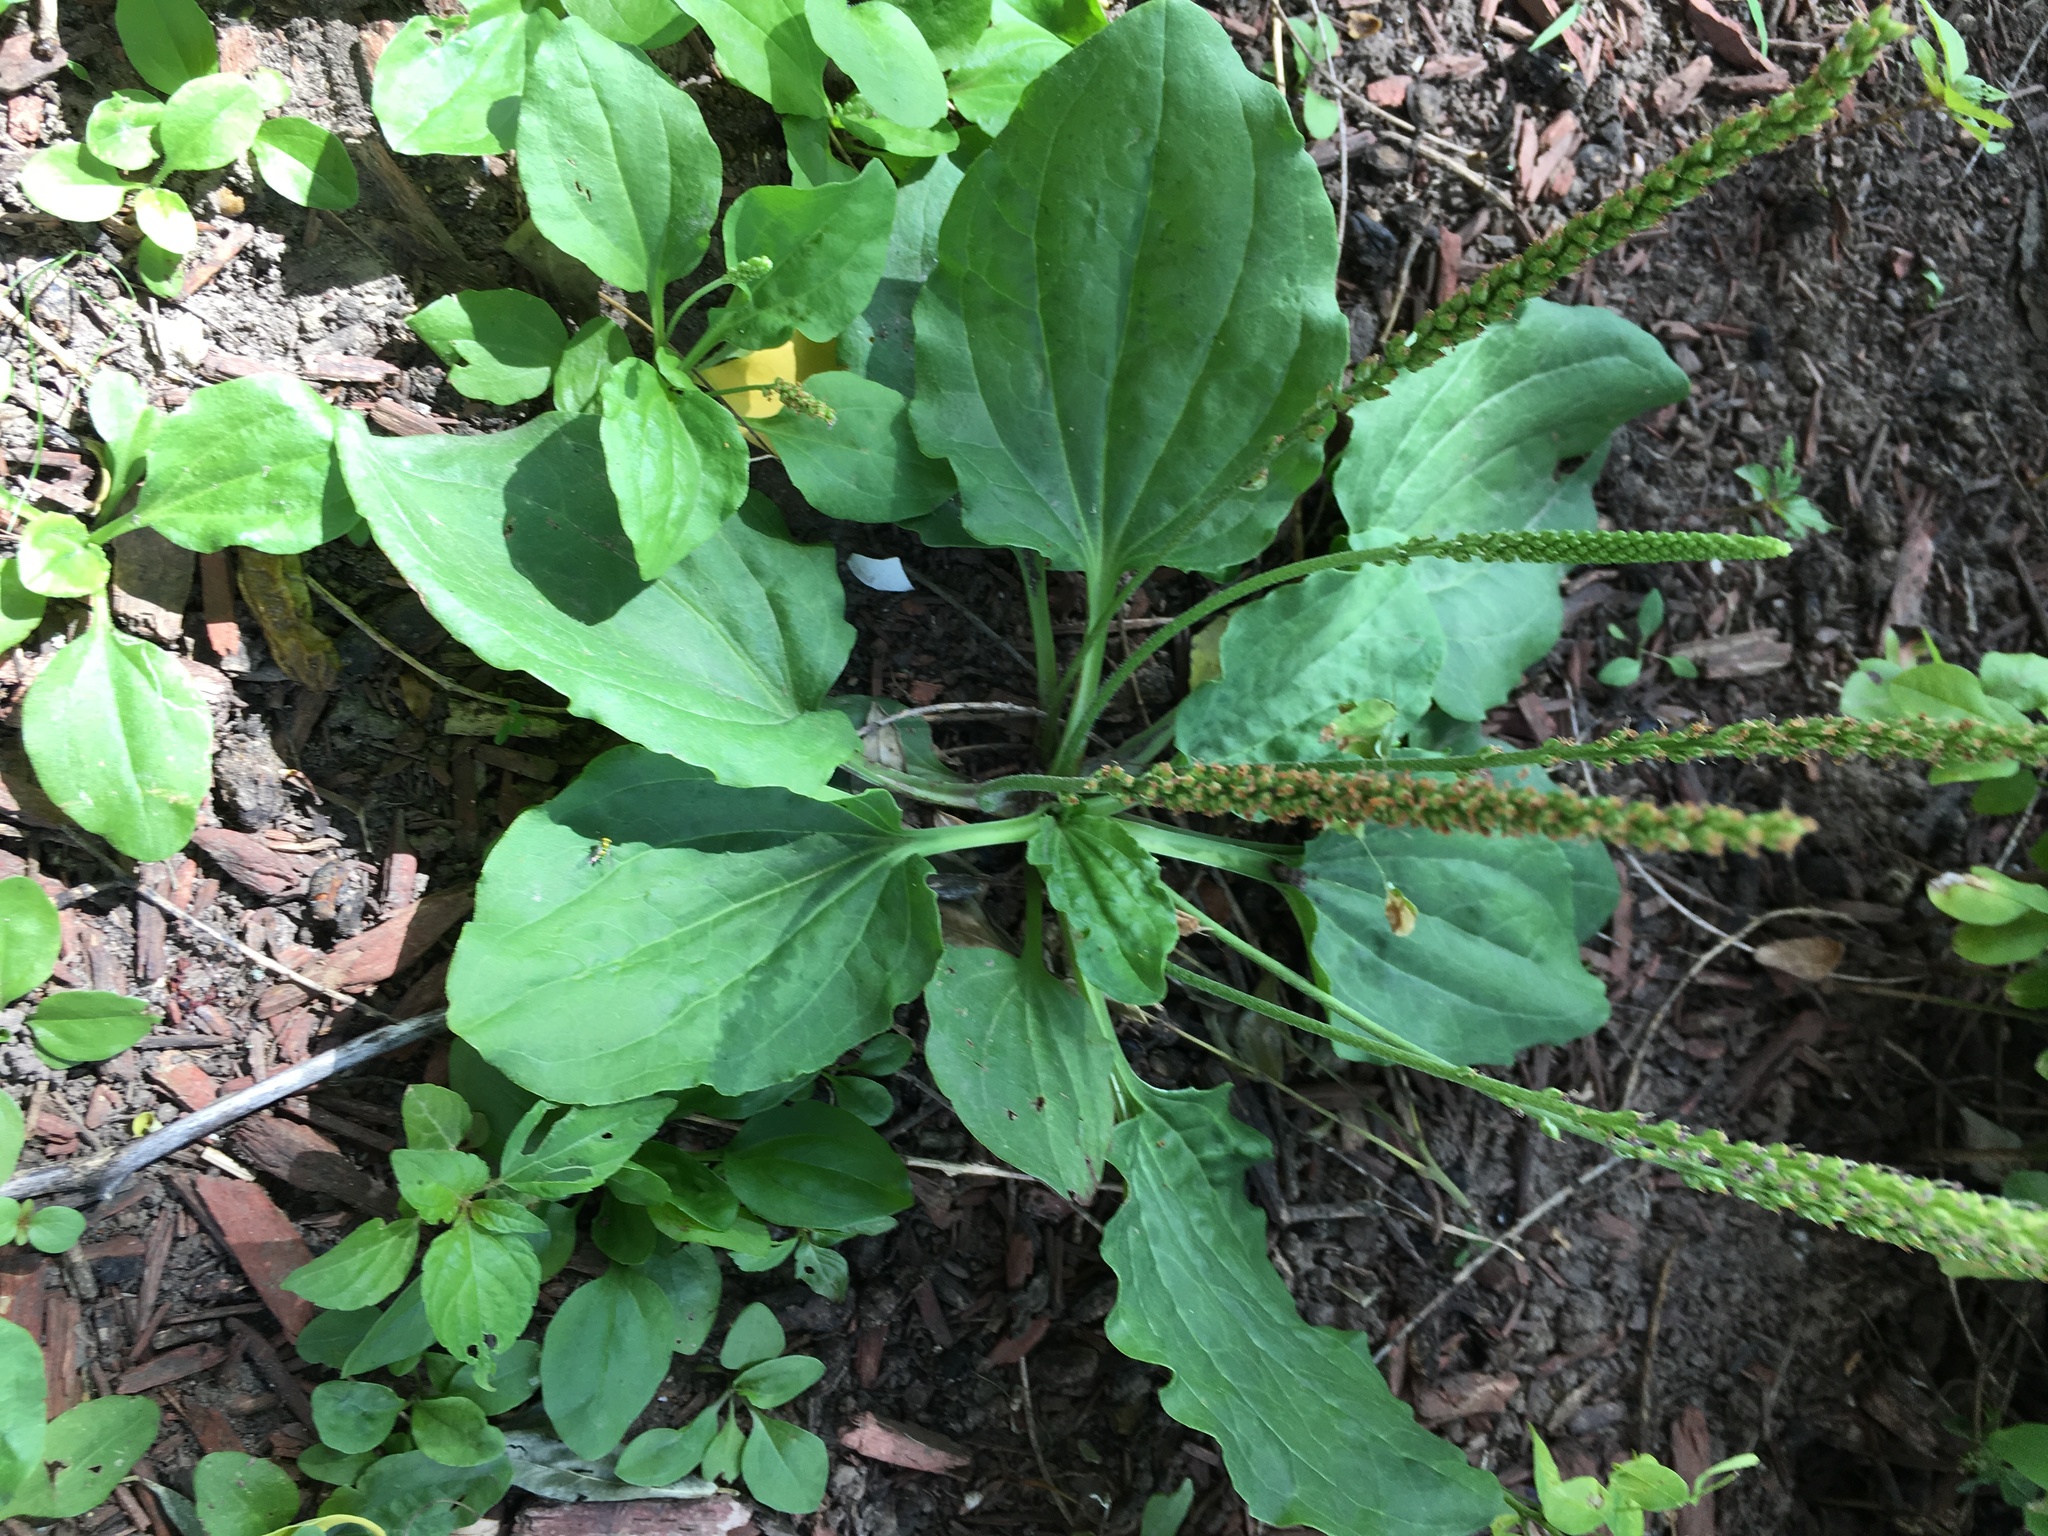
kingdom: Plantae
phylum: Tracheophyta
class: Magnoliopsida
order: Lamiales
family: Plantaginaceae
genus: Plantago
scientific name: Plantago major
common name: Common plantain
